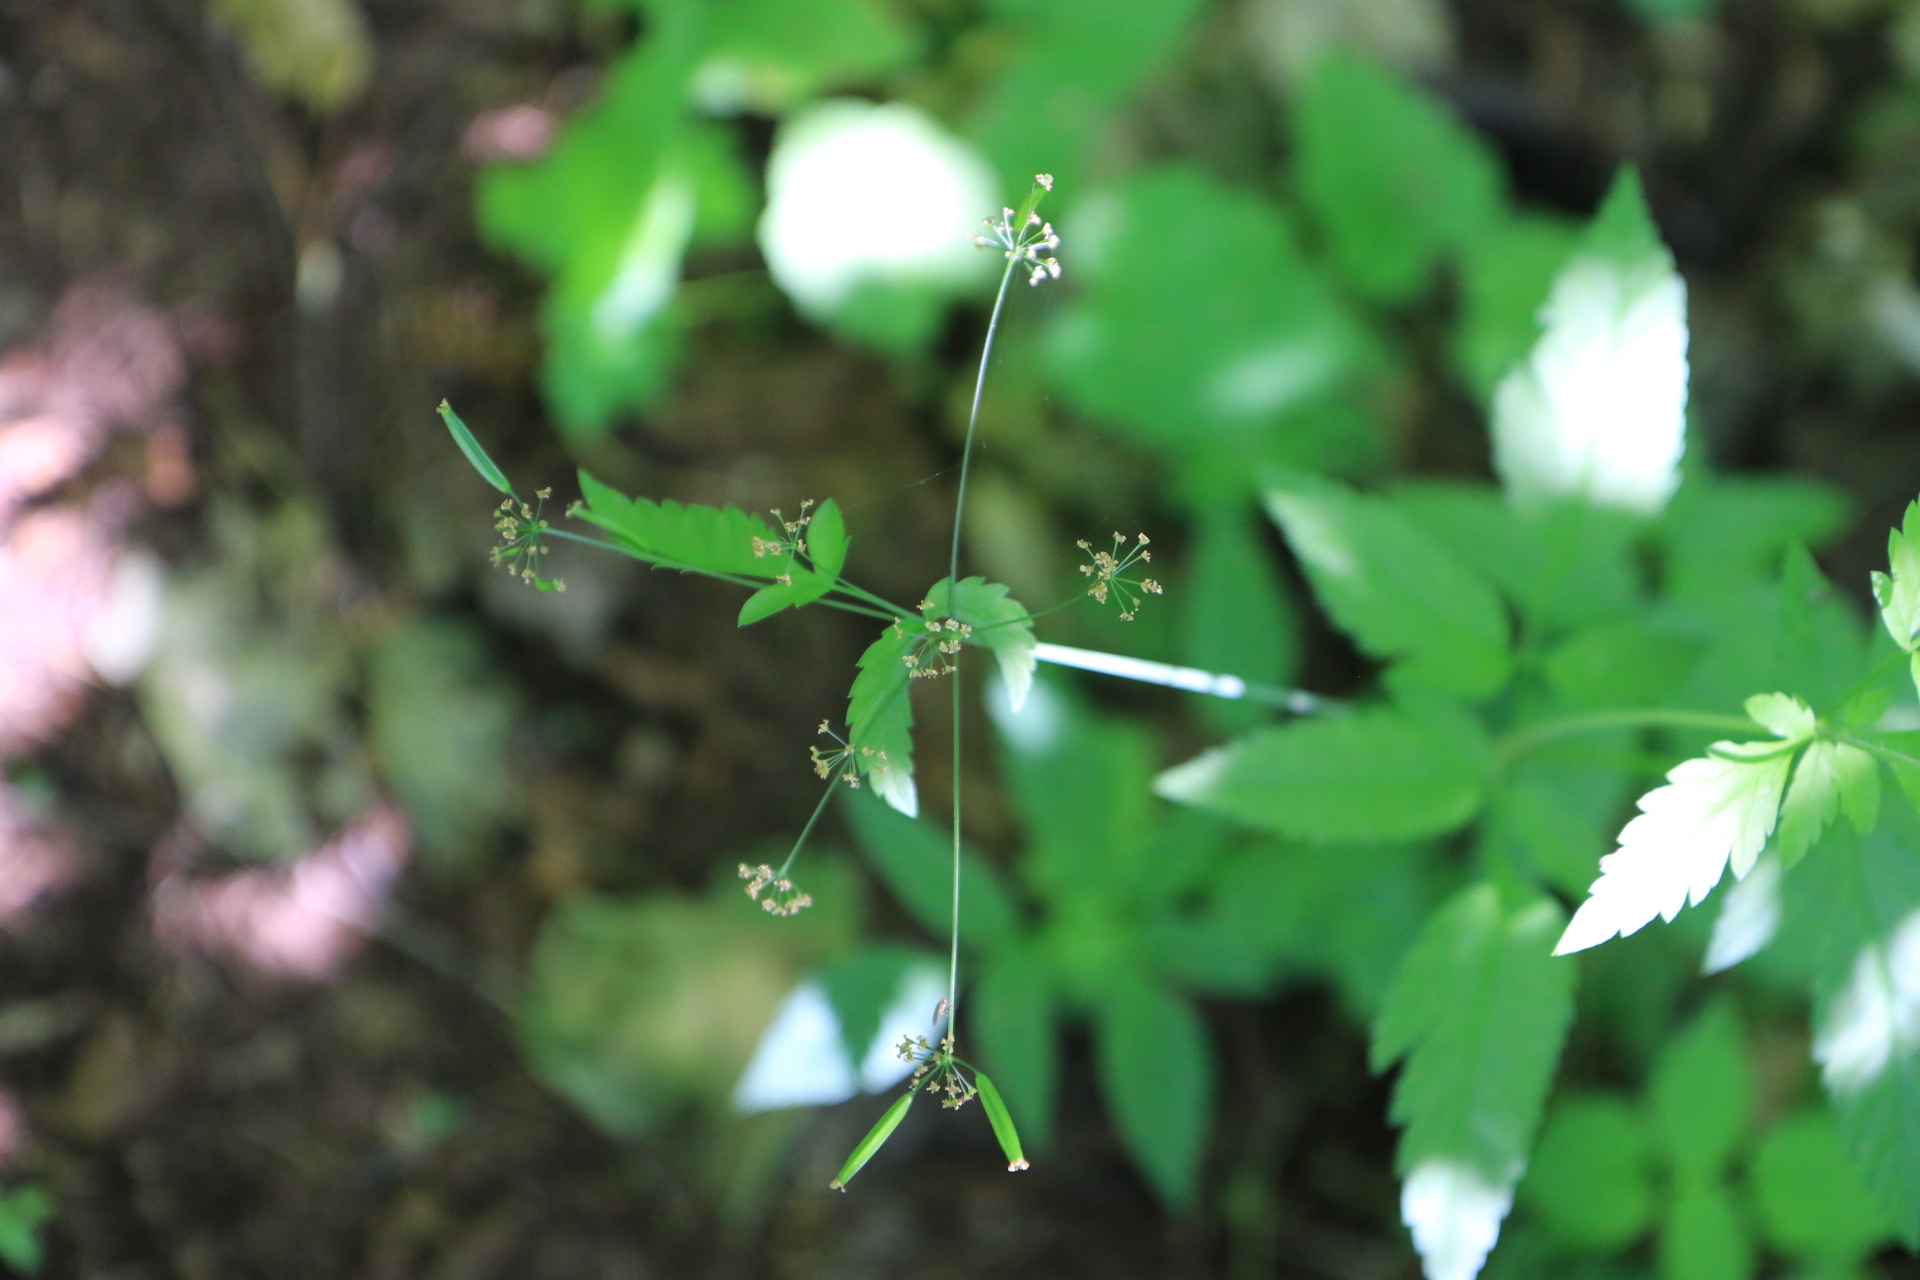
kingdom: Plantae
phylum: Tracheophyta
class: Magnoliopsida
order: Apiales
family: Apiaceae
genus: Osmorhiza
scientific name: Osmorhiza berteroi
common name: Mountain sweet cicely
